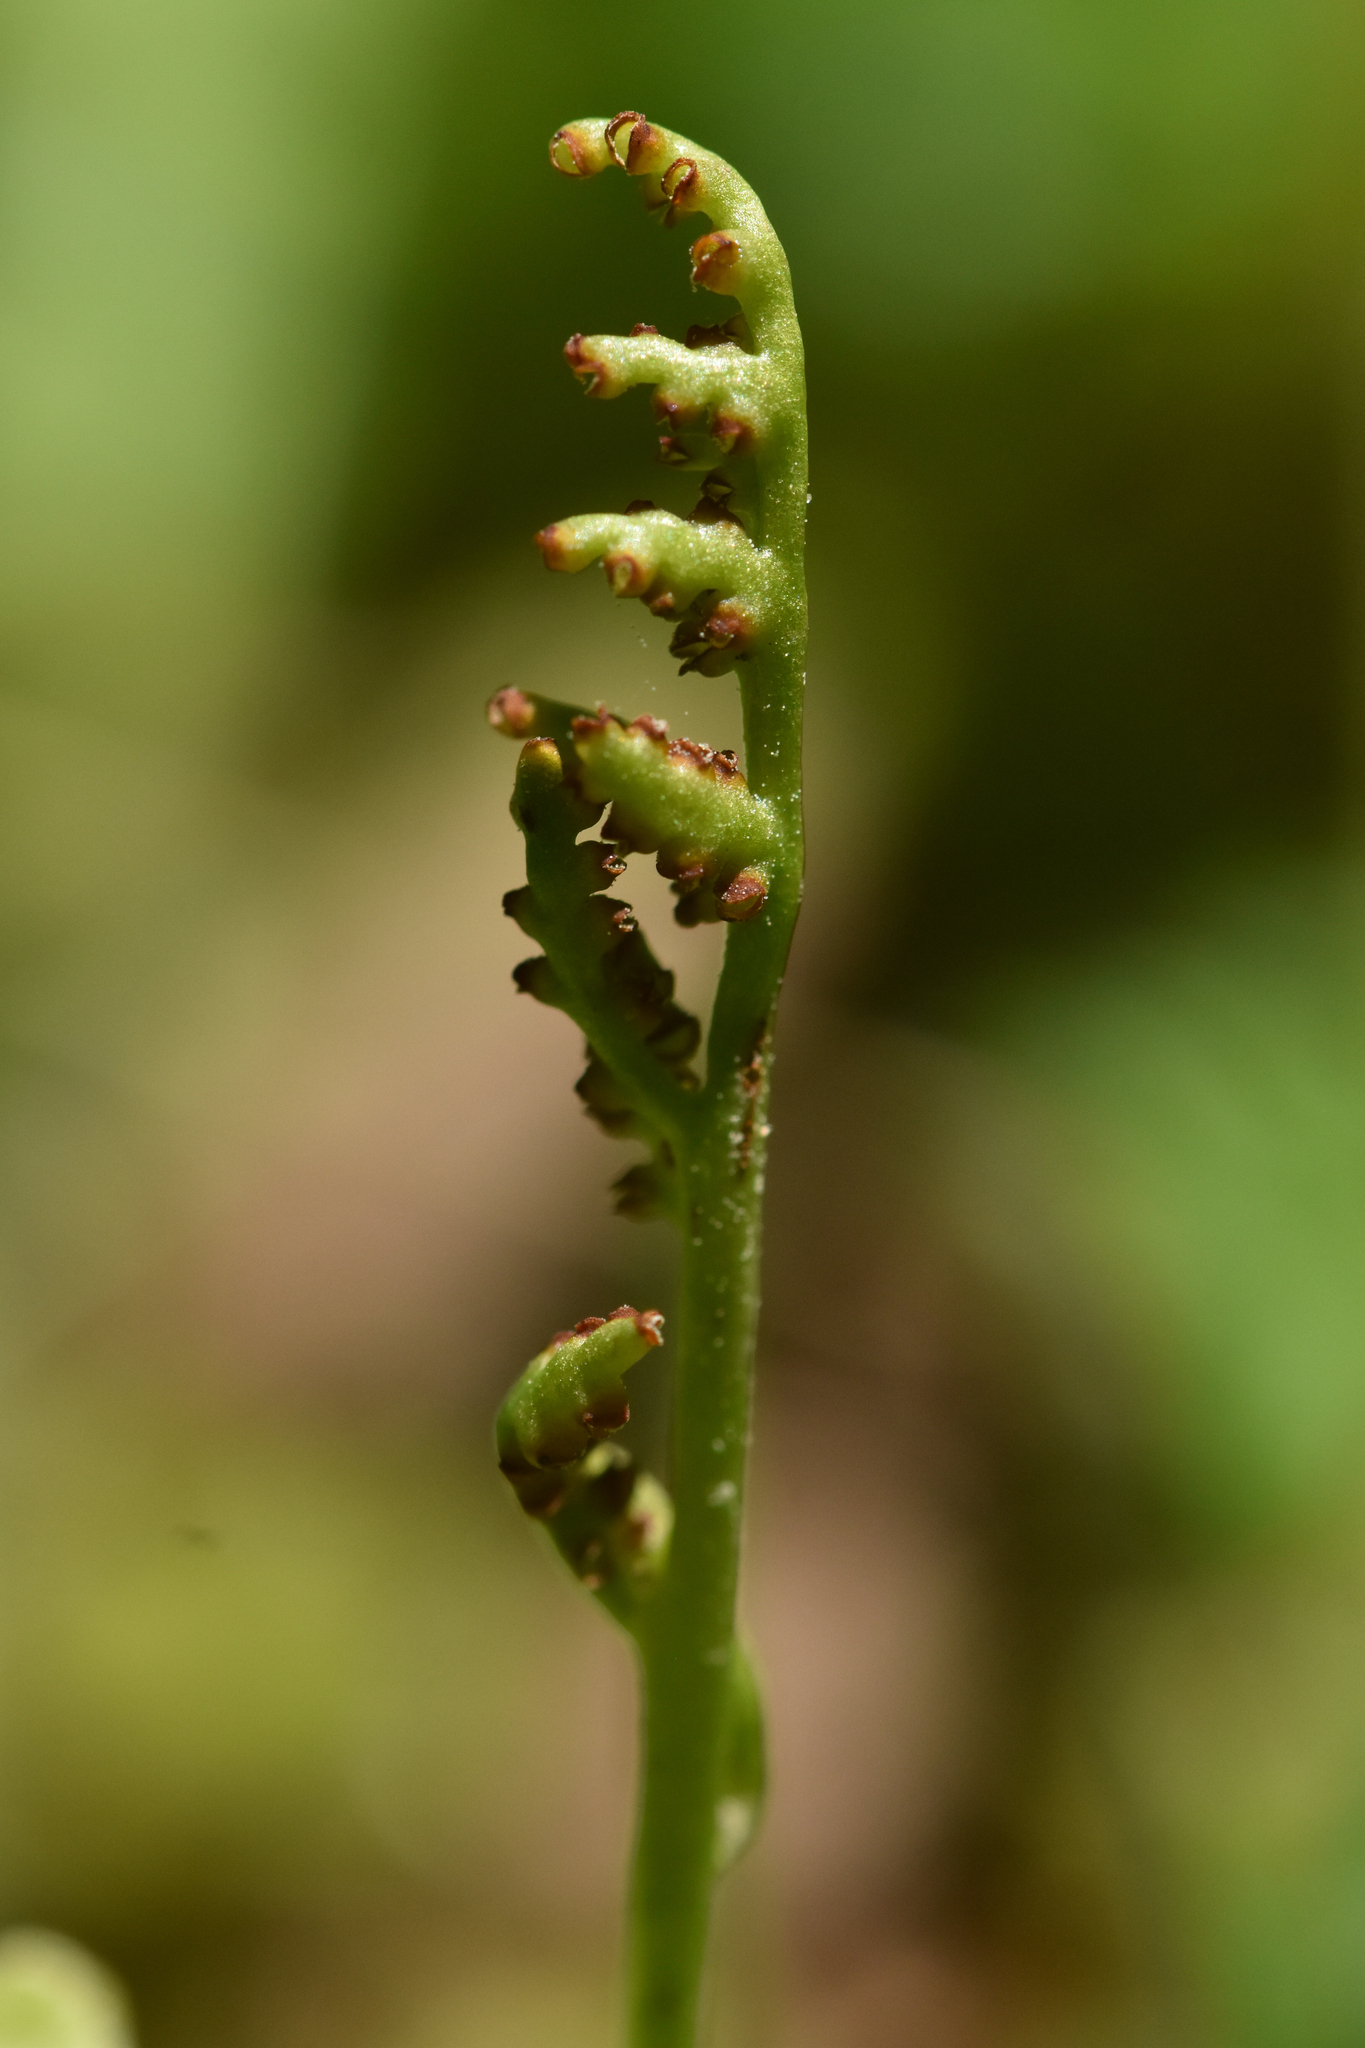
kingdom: Plantae
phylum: Tracheophyta
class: Polypodiopsida
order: Ophioglossales
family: Ophioglossaceae
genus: Botrychium
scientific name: Botrychium pinnatum
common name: Northwestern moonwort
